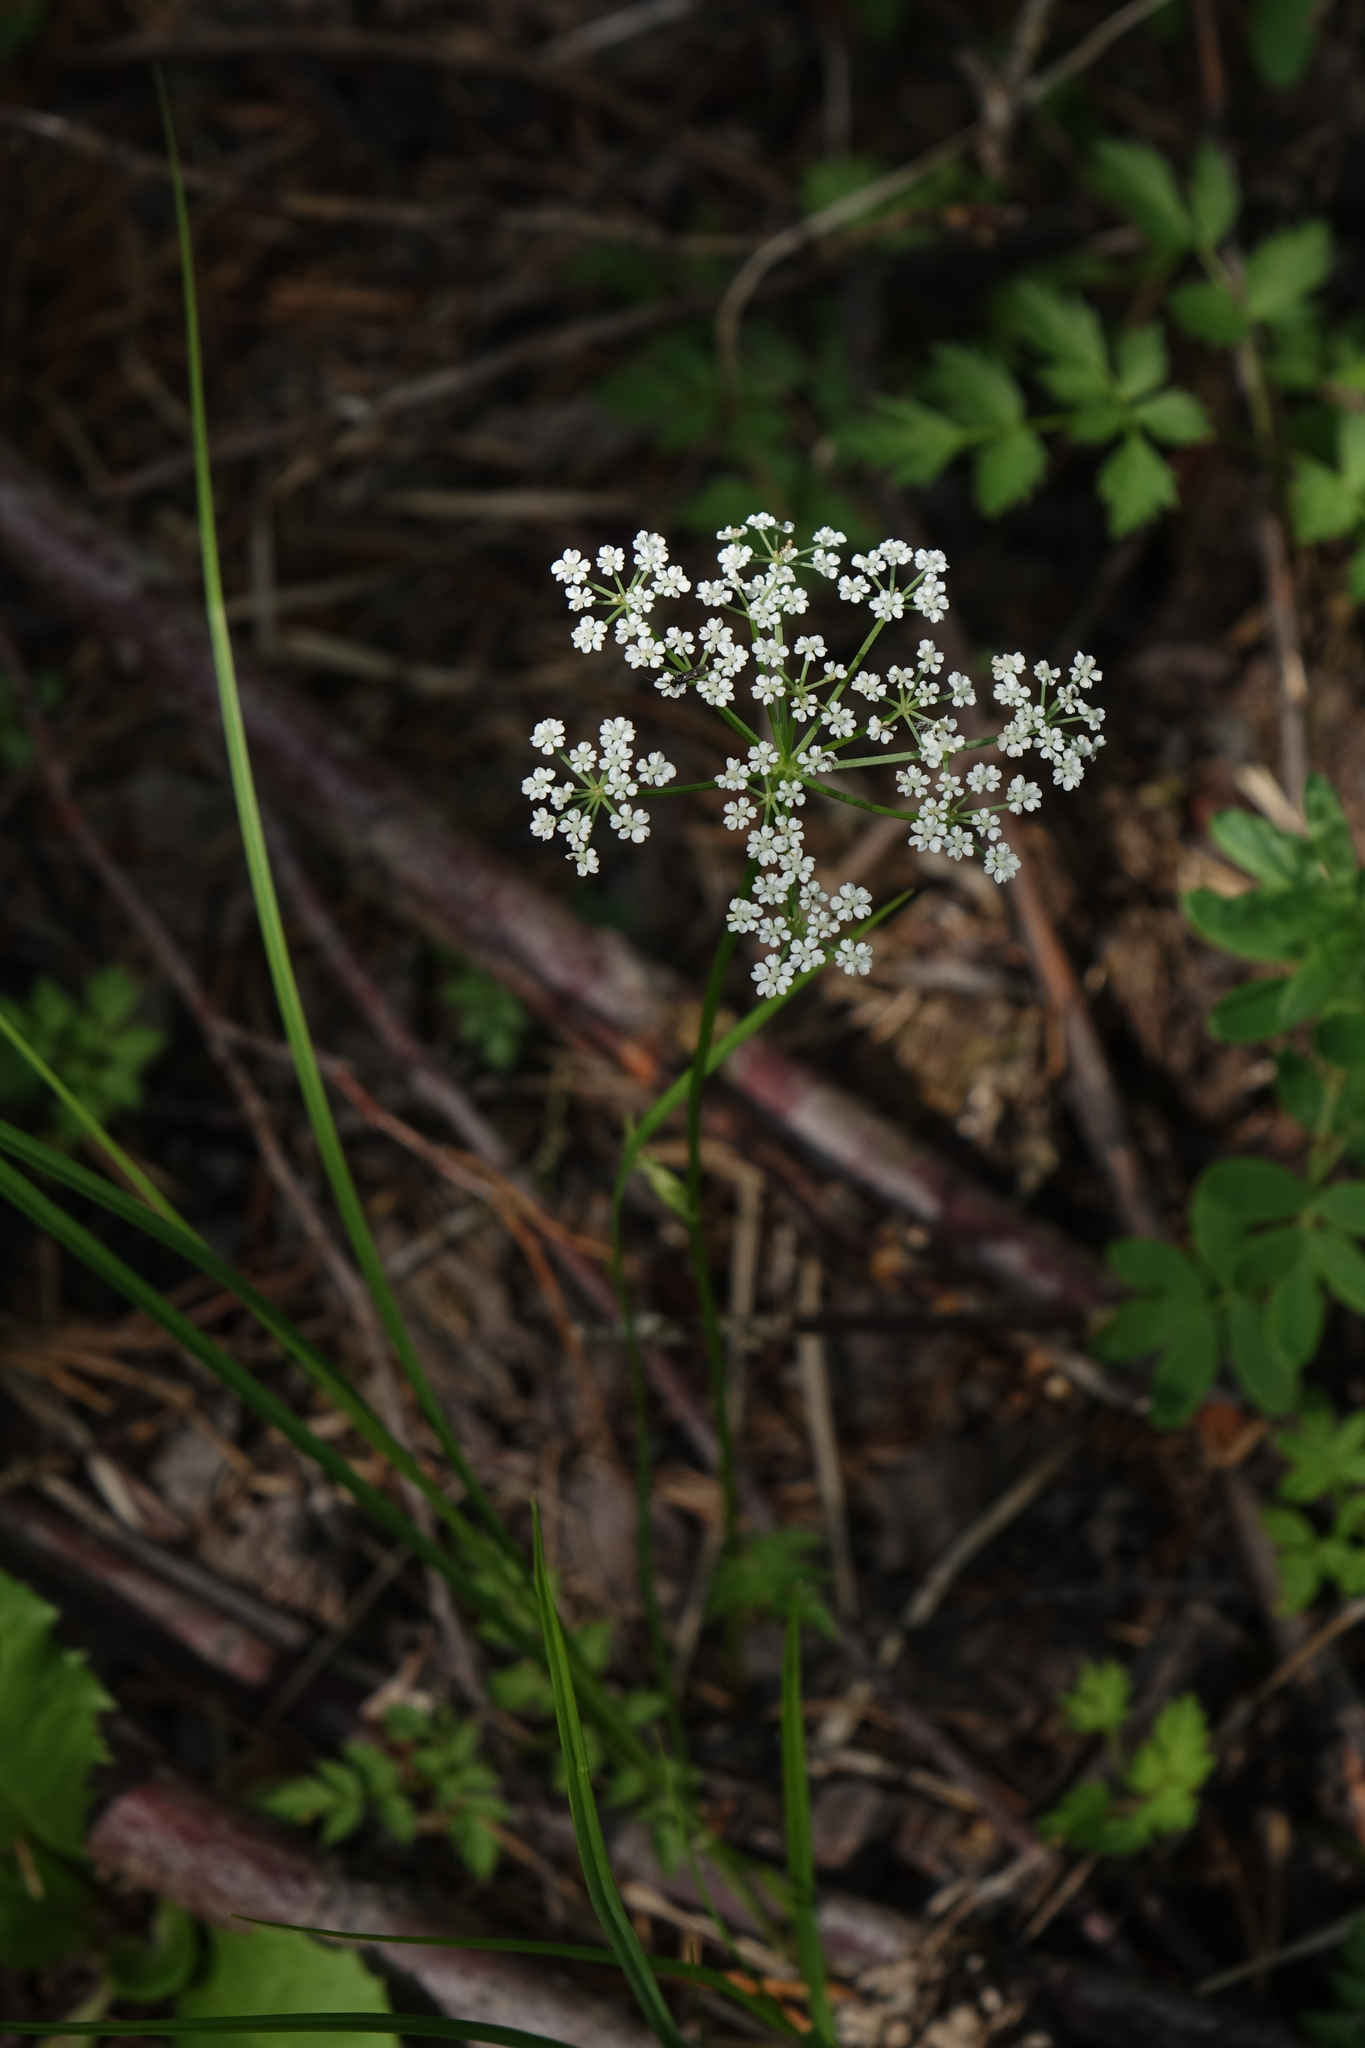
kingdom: Plantae
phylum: Tracheophyta
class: Magnoliopsida
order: Apiales
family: Apiaceae
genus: Aegopodium
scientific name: Aegopodium alpestre
